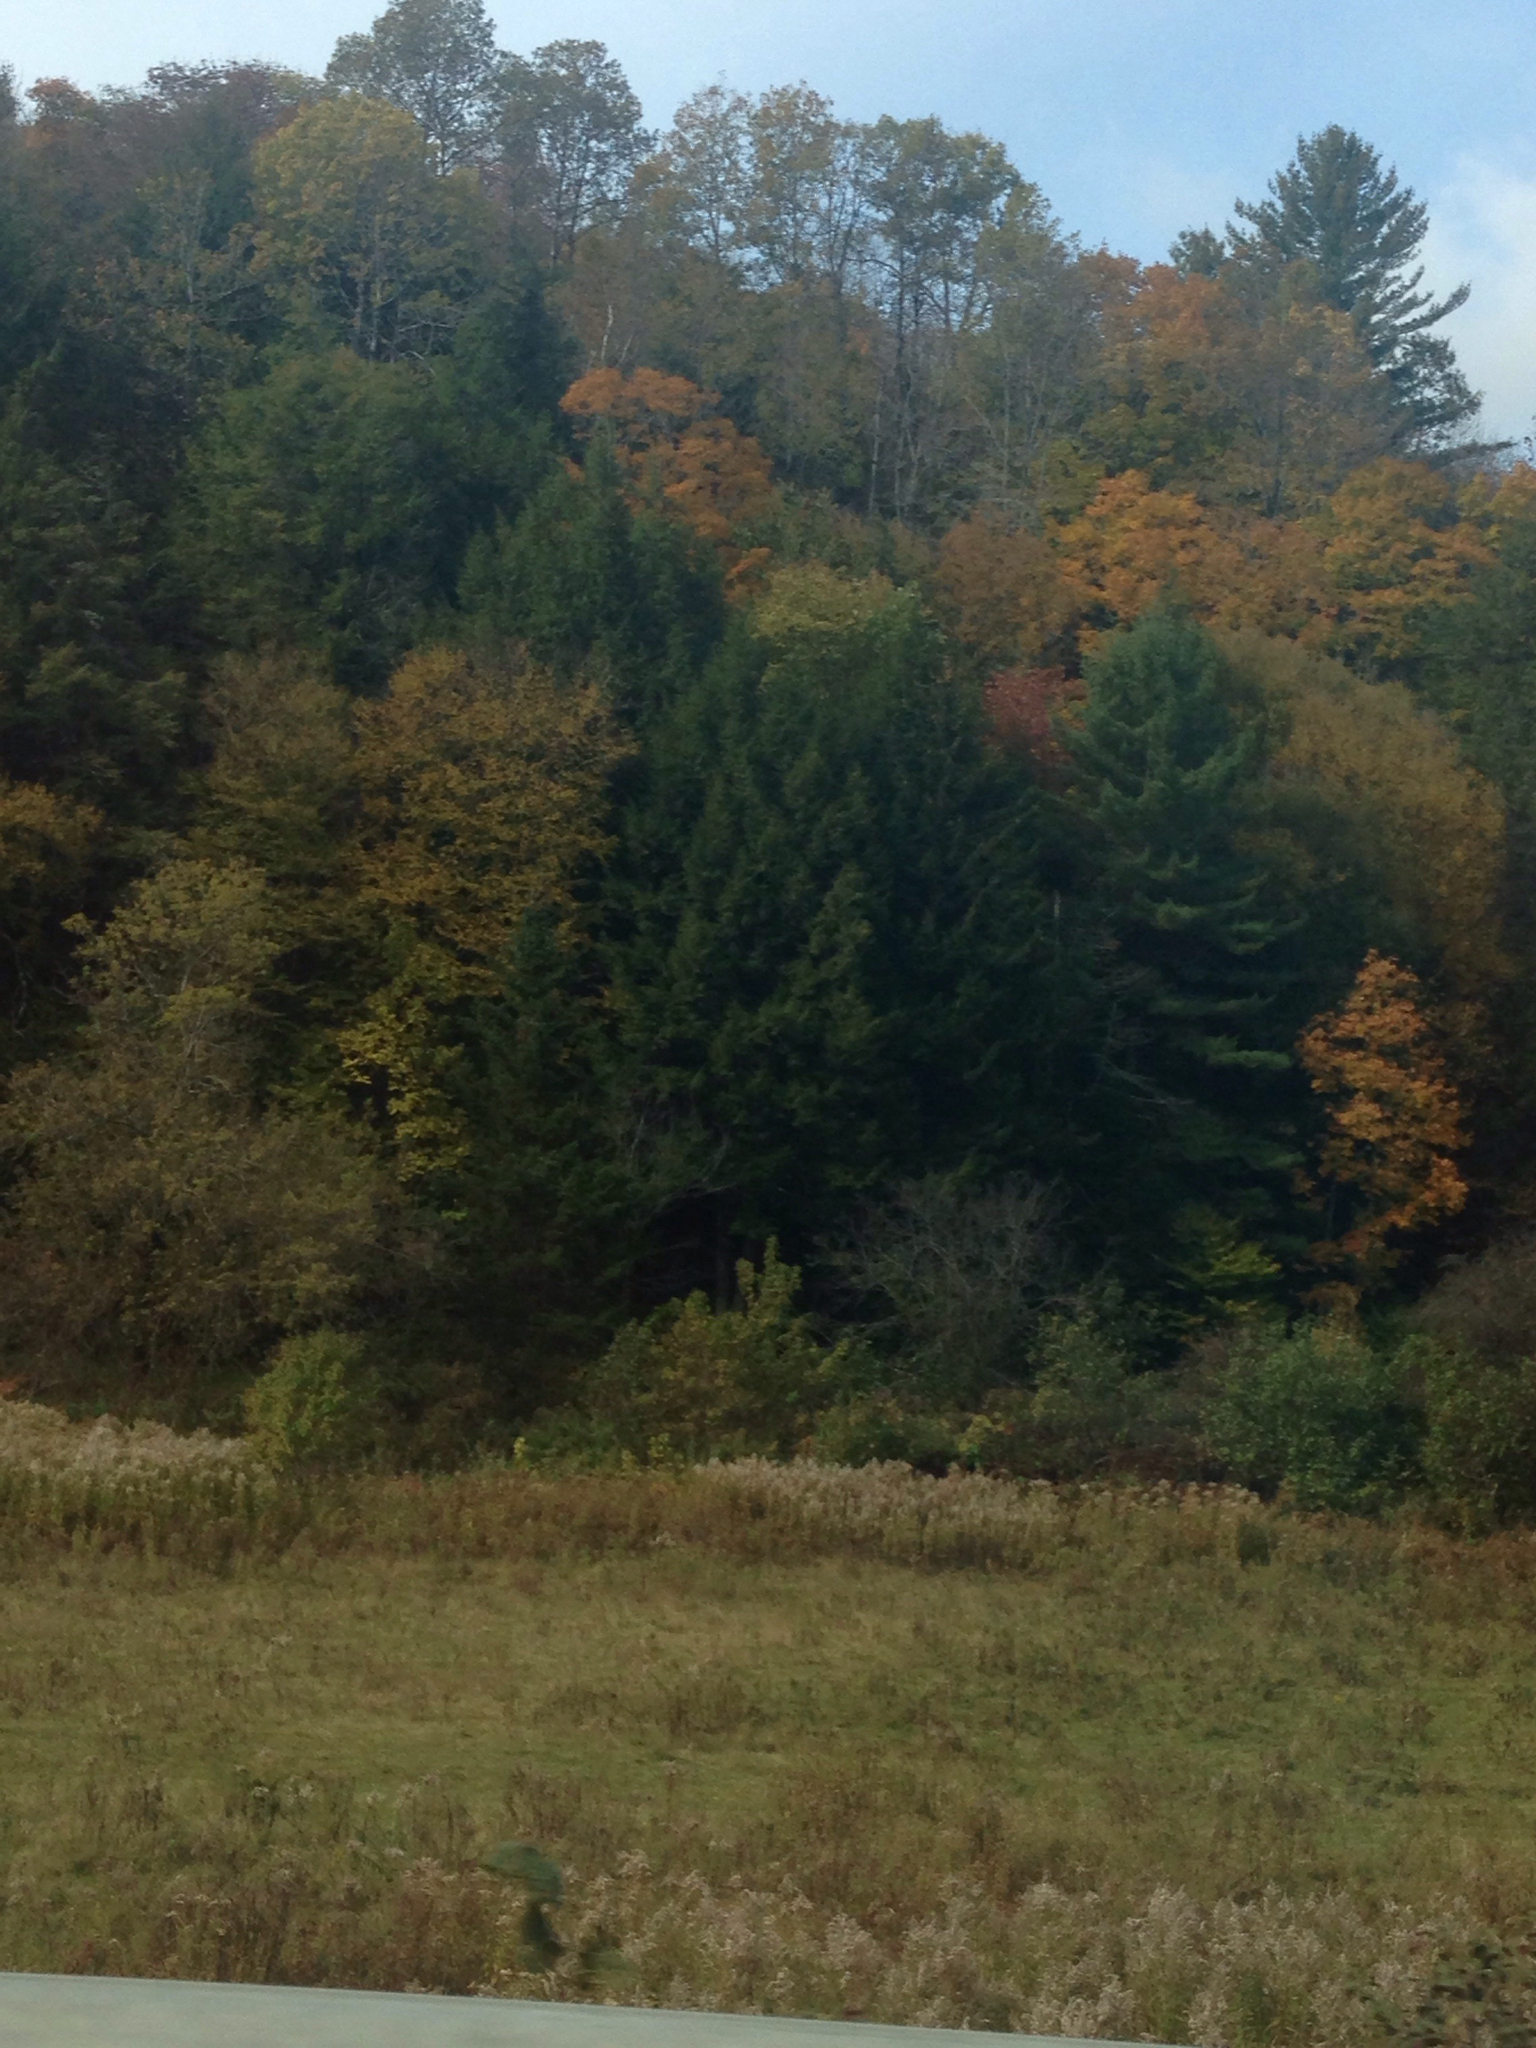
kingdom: Plantae
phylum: Tracheophyta
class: Pinopsida
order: Pinales
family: Pinaceae
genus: Pinus
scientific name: Pinus strobus
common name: Weymouth pine
